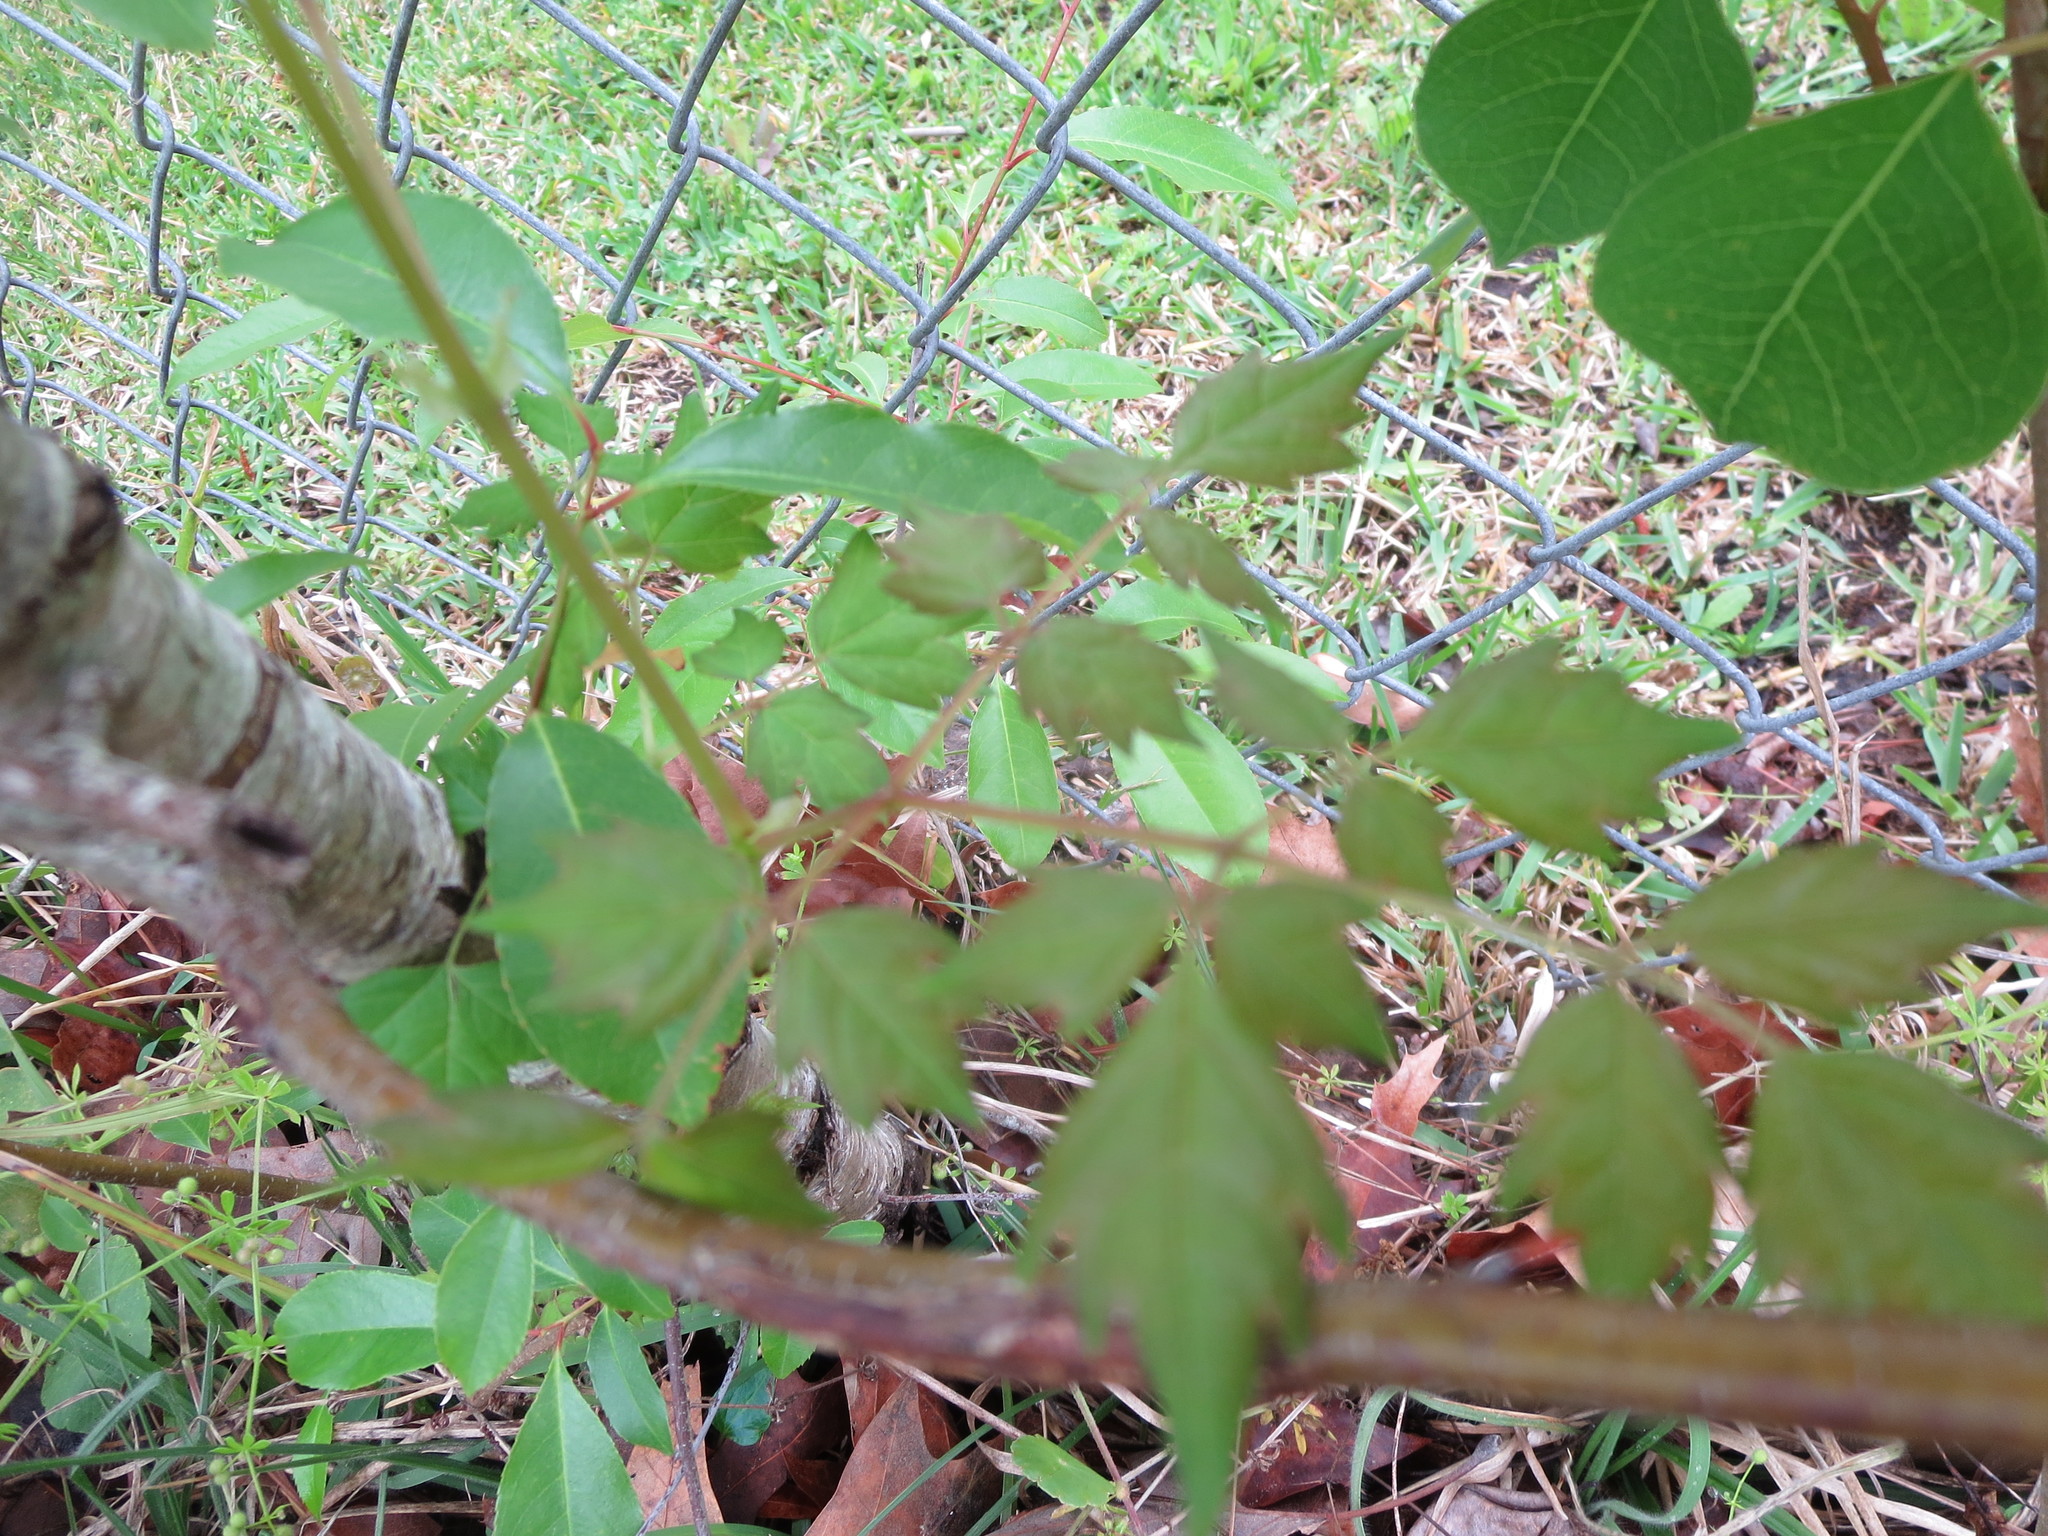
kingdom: Plantae
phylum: Tracheophyta
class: Magnoliopsida
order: Vitales
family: Vitaceae
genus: Nekemias
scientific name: Nekemias arborea
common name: Peppervine
